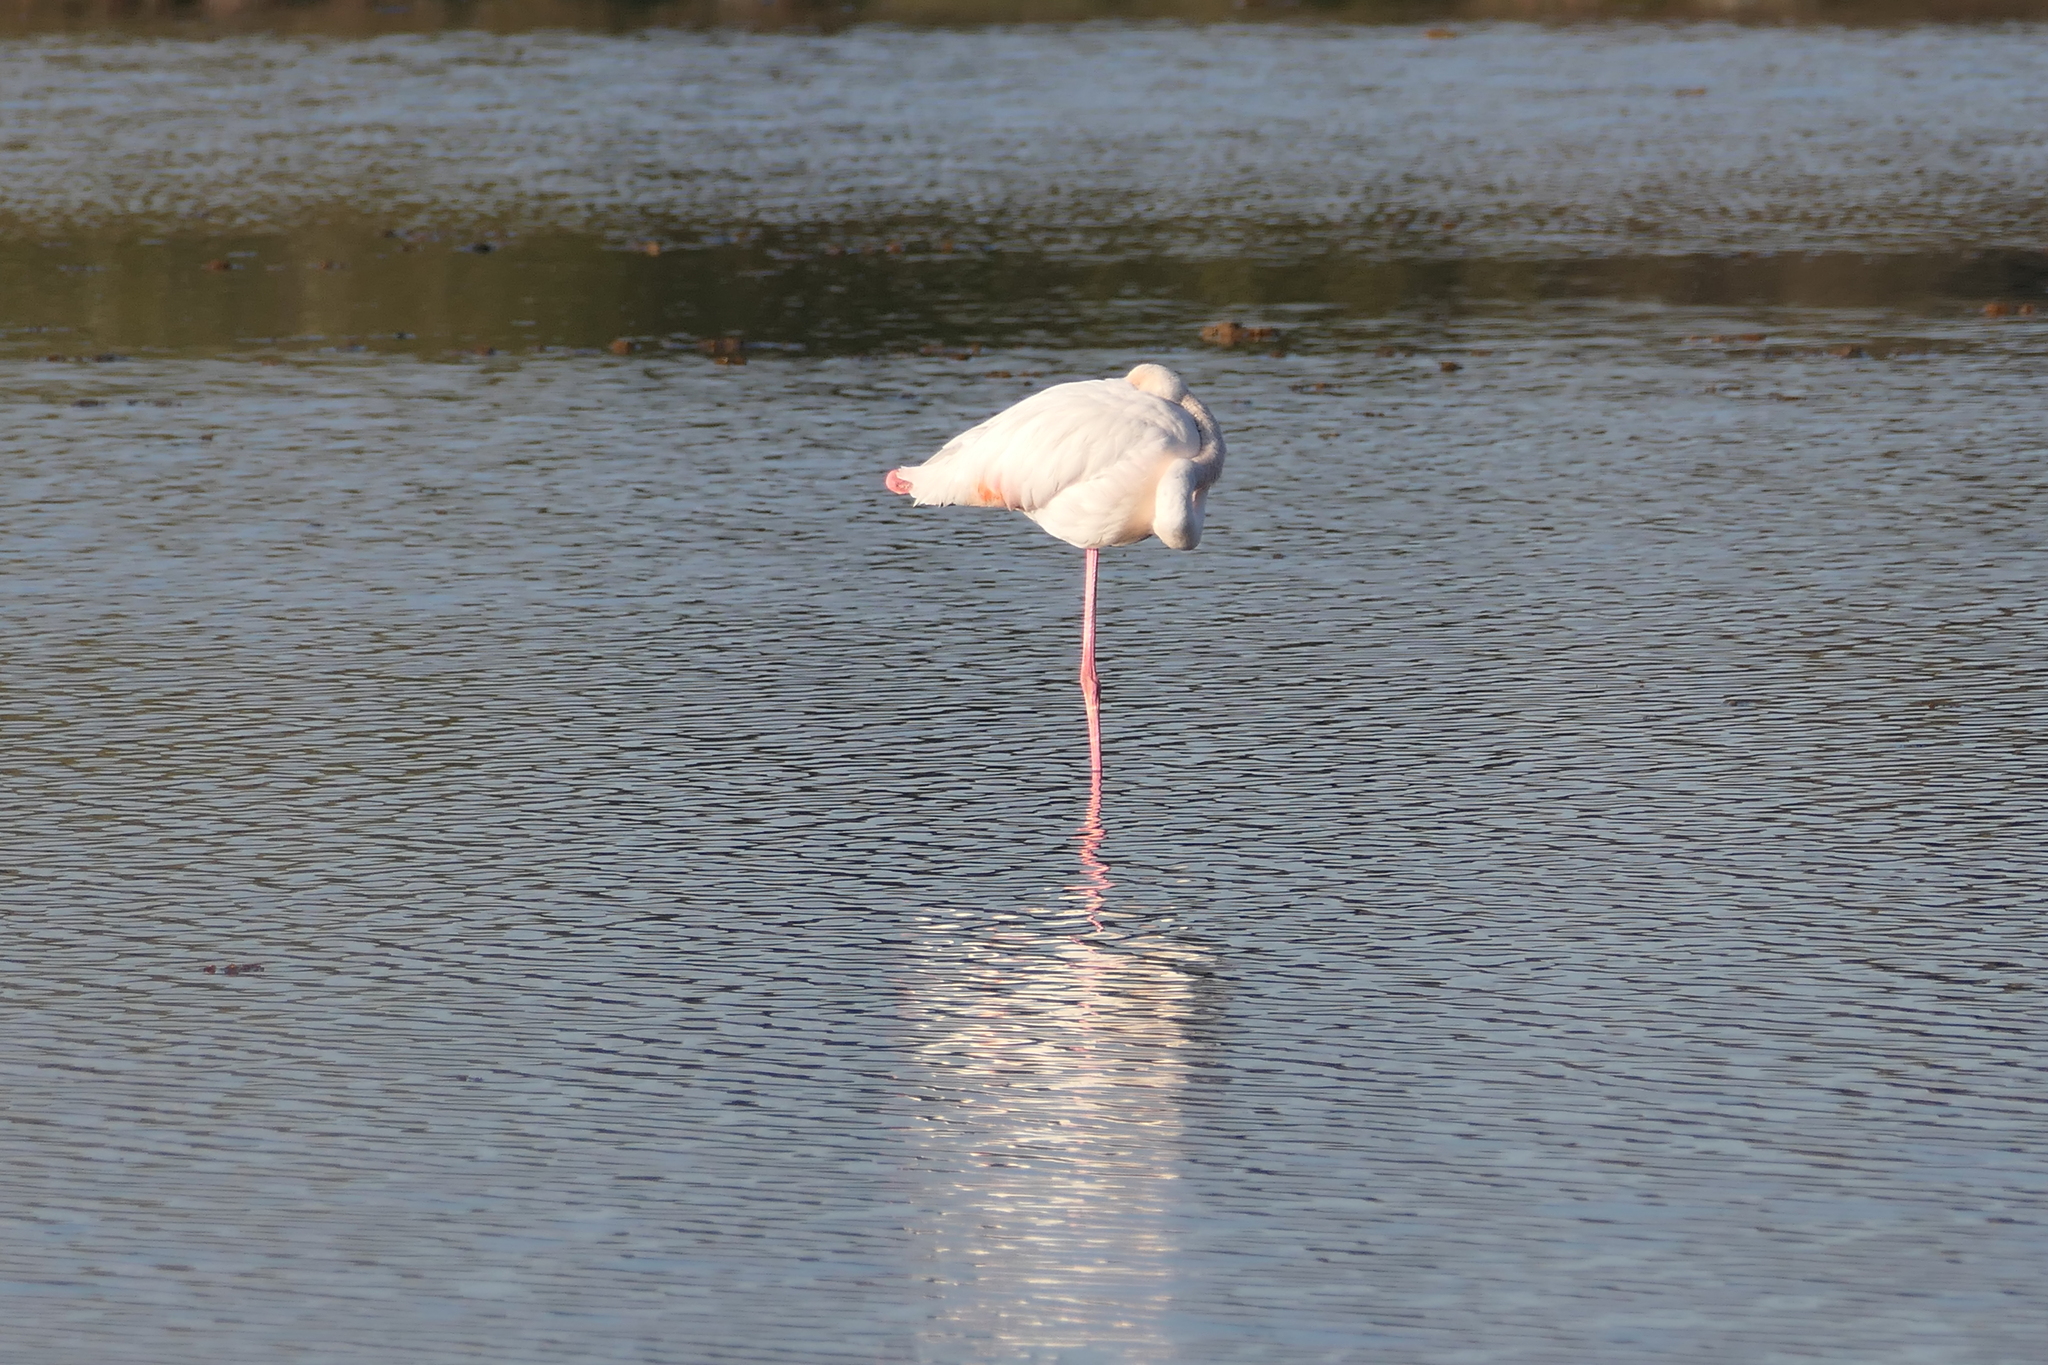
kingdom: Animalia
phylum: Chordata
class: Aves
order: Phoenicopteriformes
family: Phoenicopteridae
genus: Phoenicopterus
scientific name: Phoenicopterus roseus
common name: Greater flamingo
